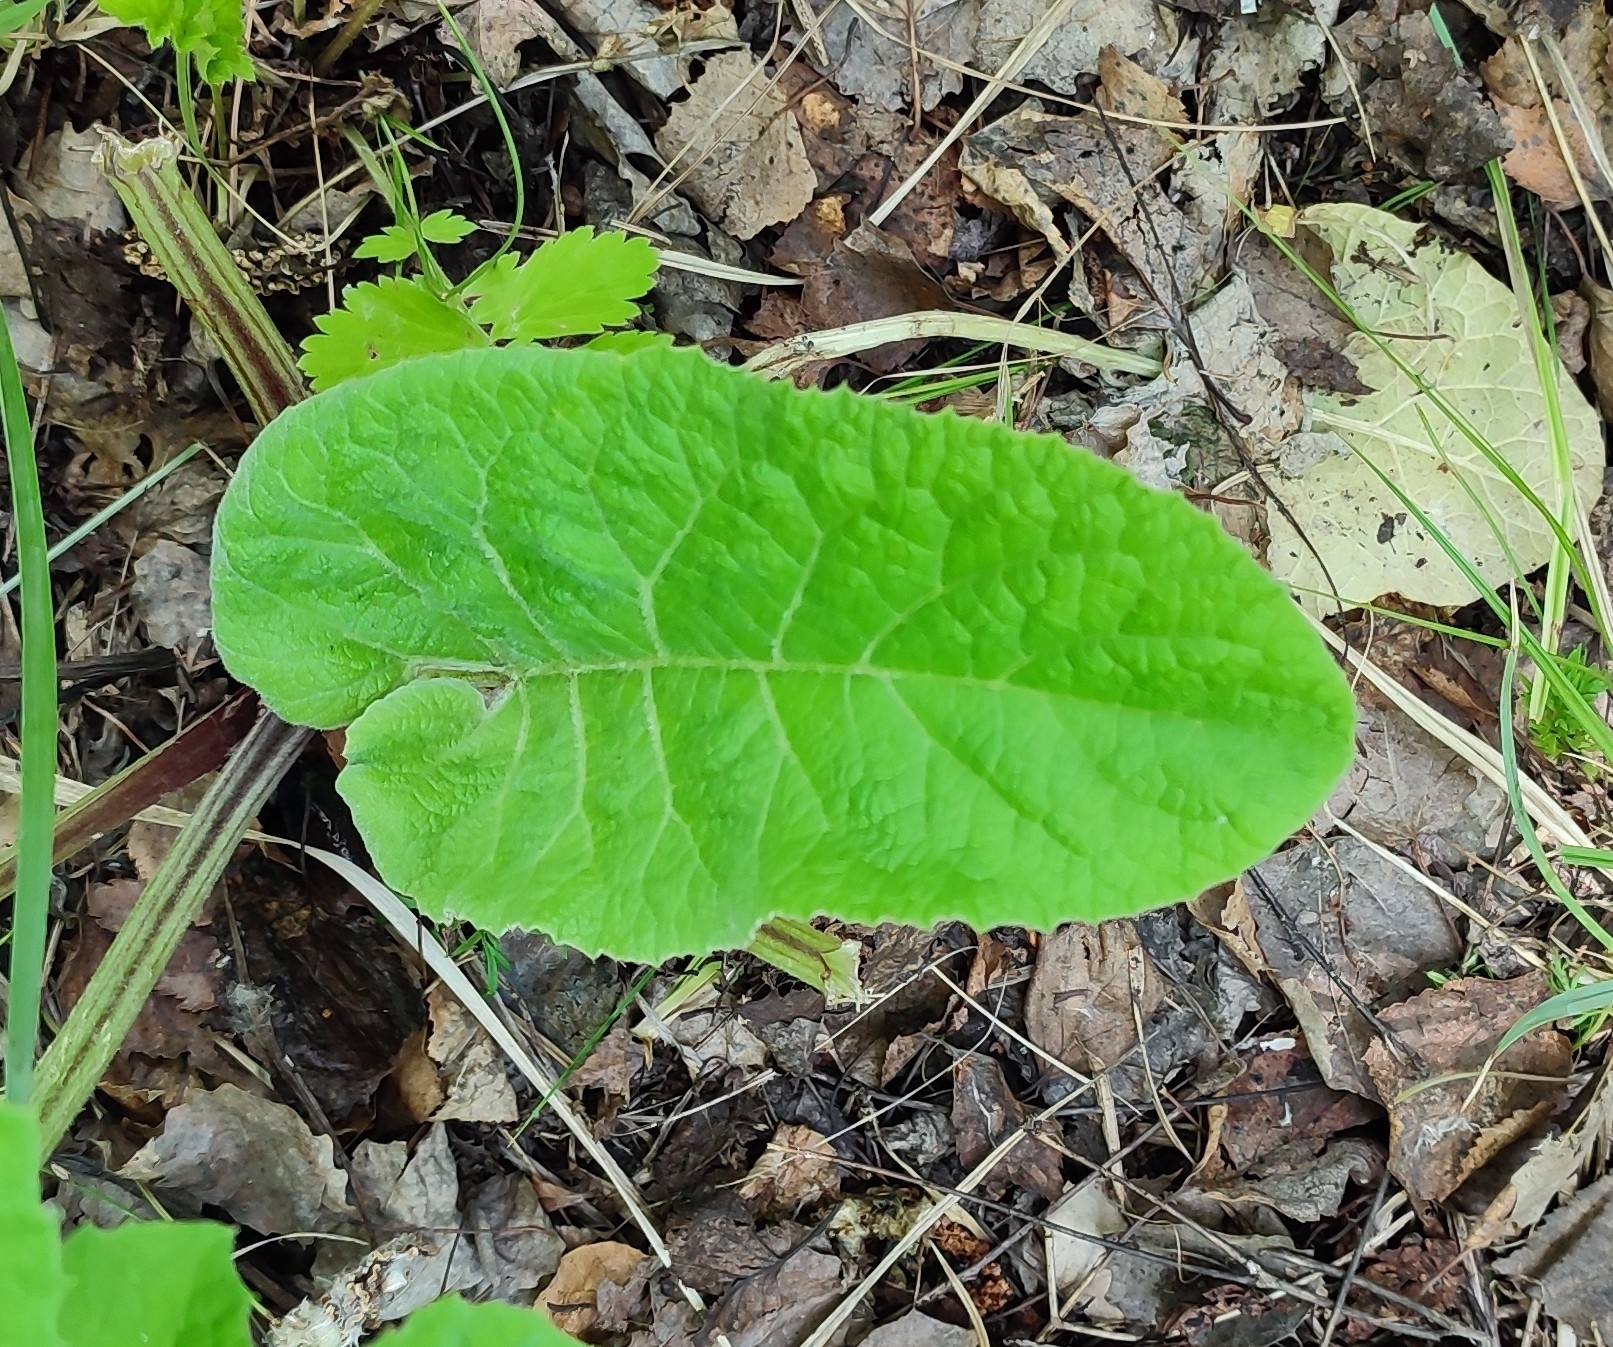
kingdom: Plantae
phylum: Tracheophyta
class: Magnoliopsida
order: Asterales
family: Asteraceae
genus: Arctium
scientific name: Arctium tomentosum
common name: Woolly burdock
